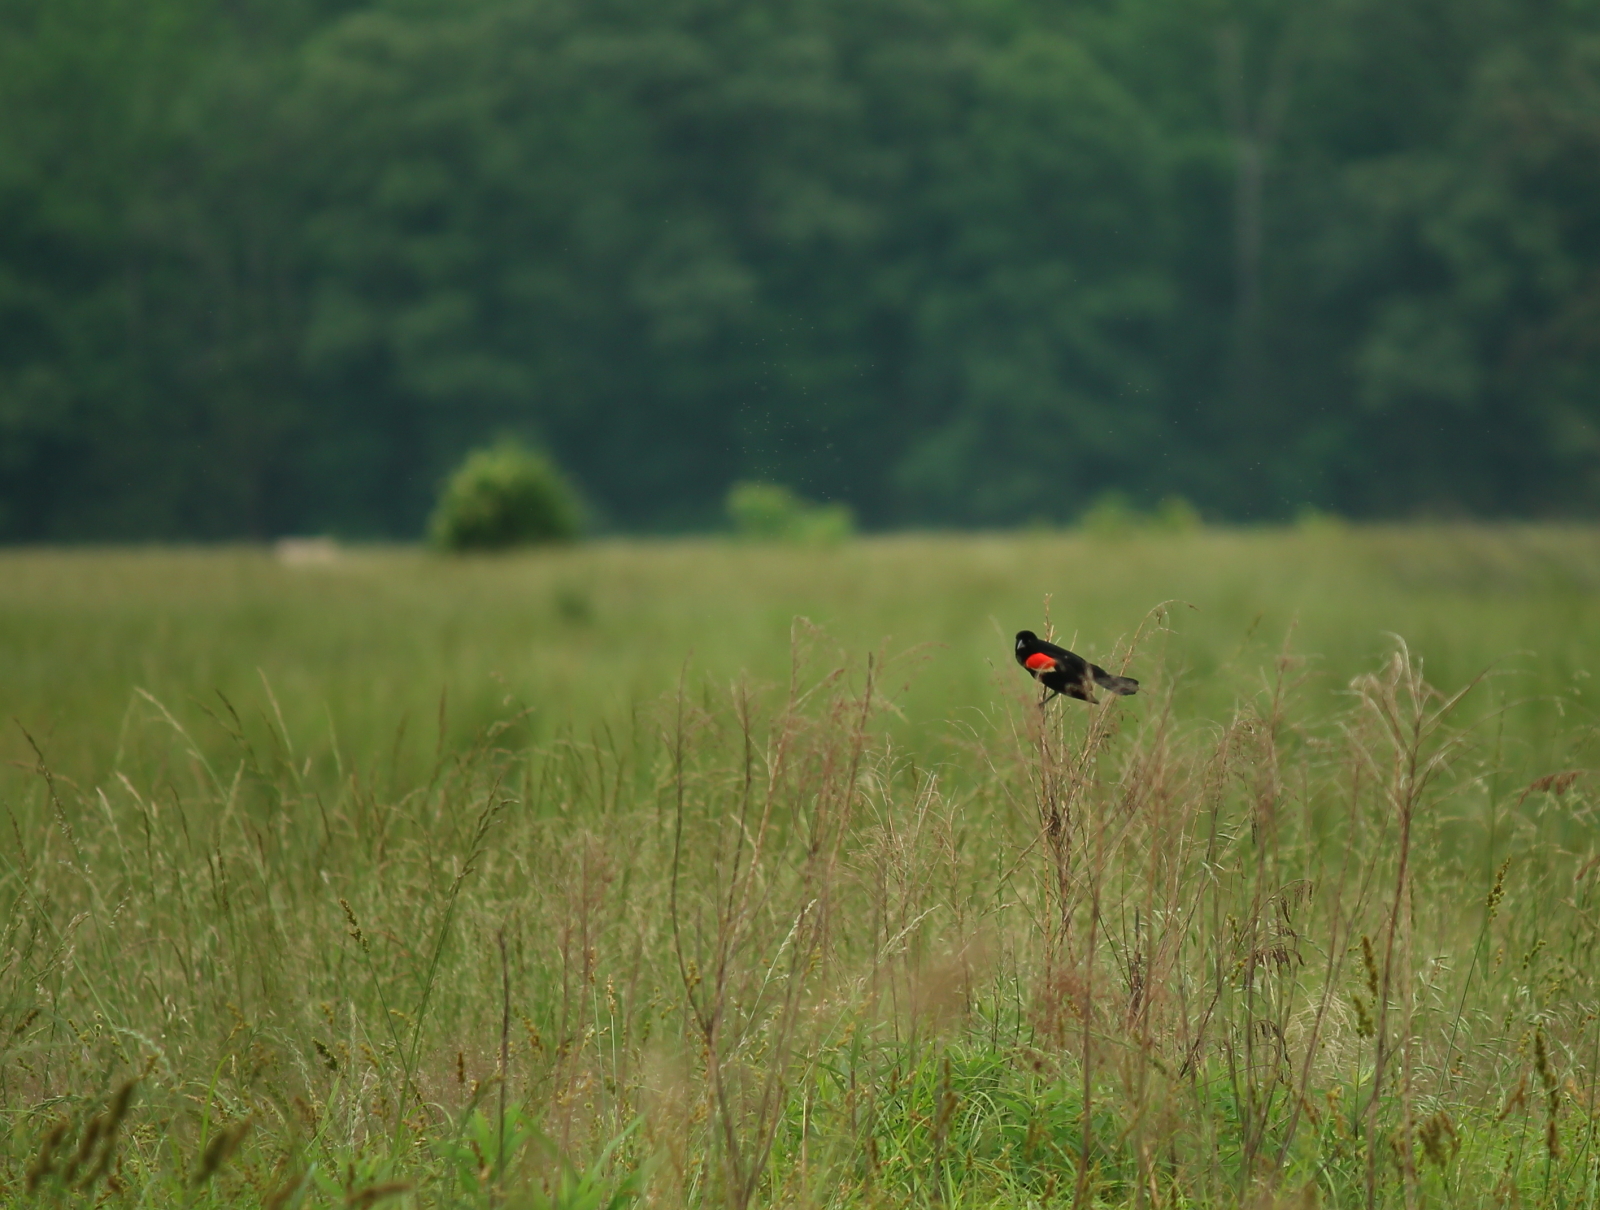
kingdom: Animalia
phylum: Chordata
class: Aves
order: Passeriformes
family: Icteridae
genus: Agelaius
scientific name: Agelaius phoeniceus
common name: Red-winged blackbird
